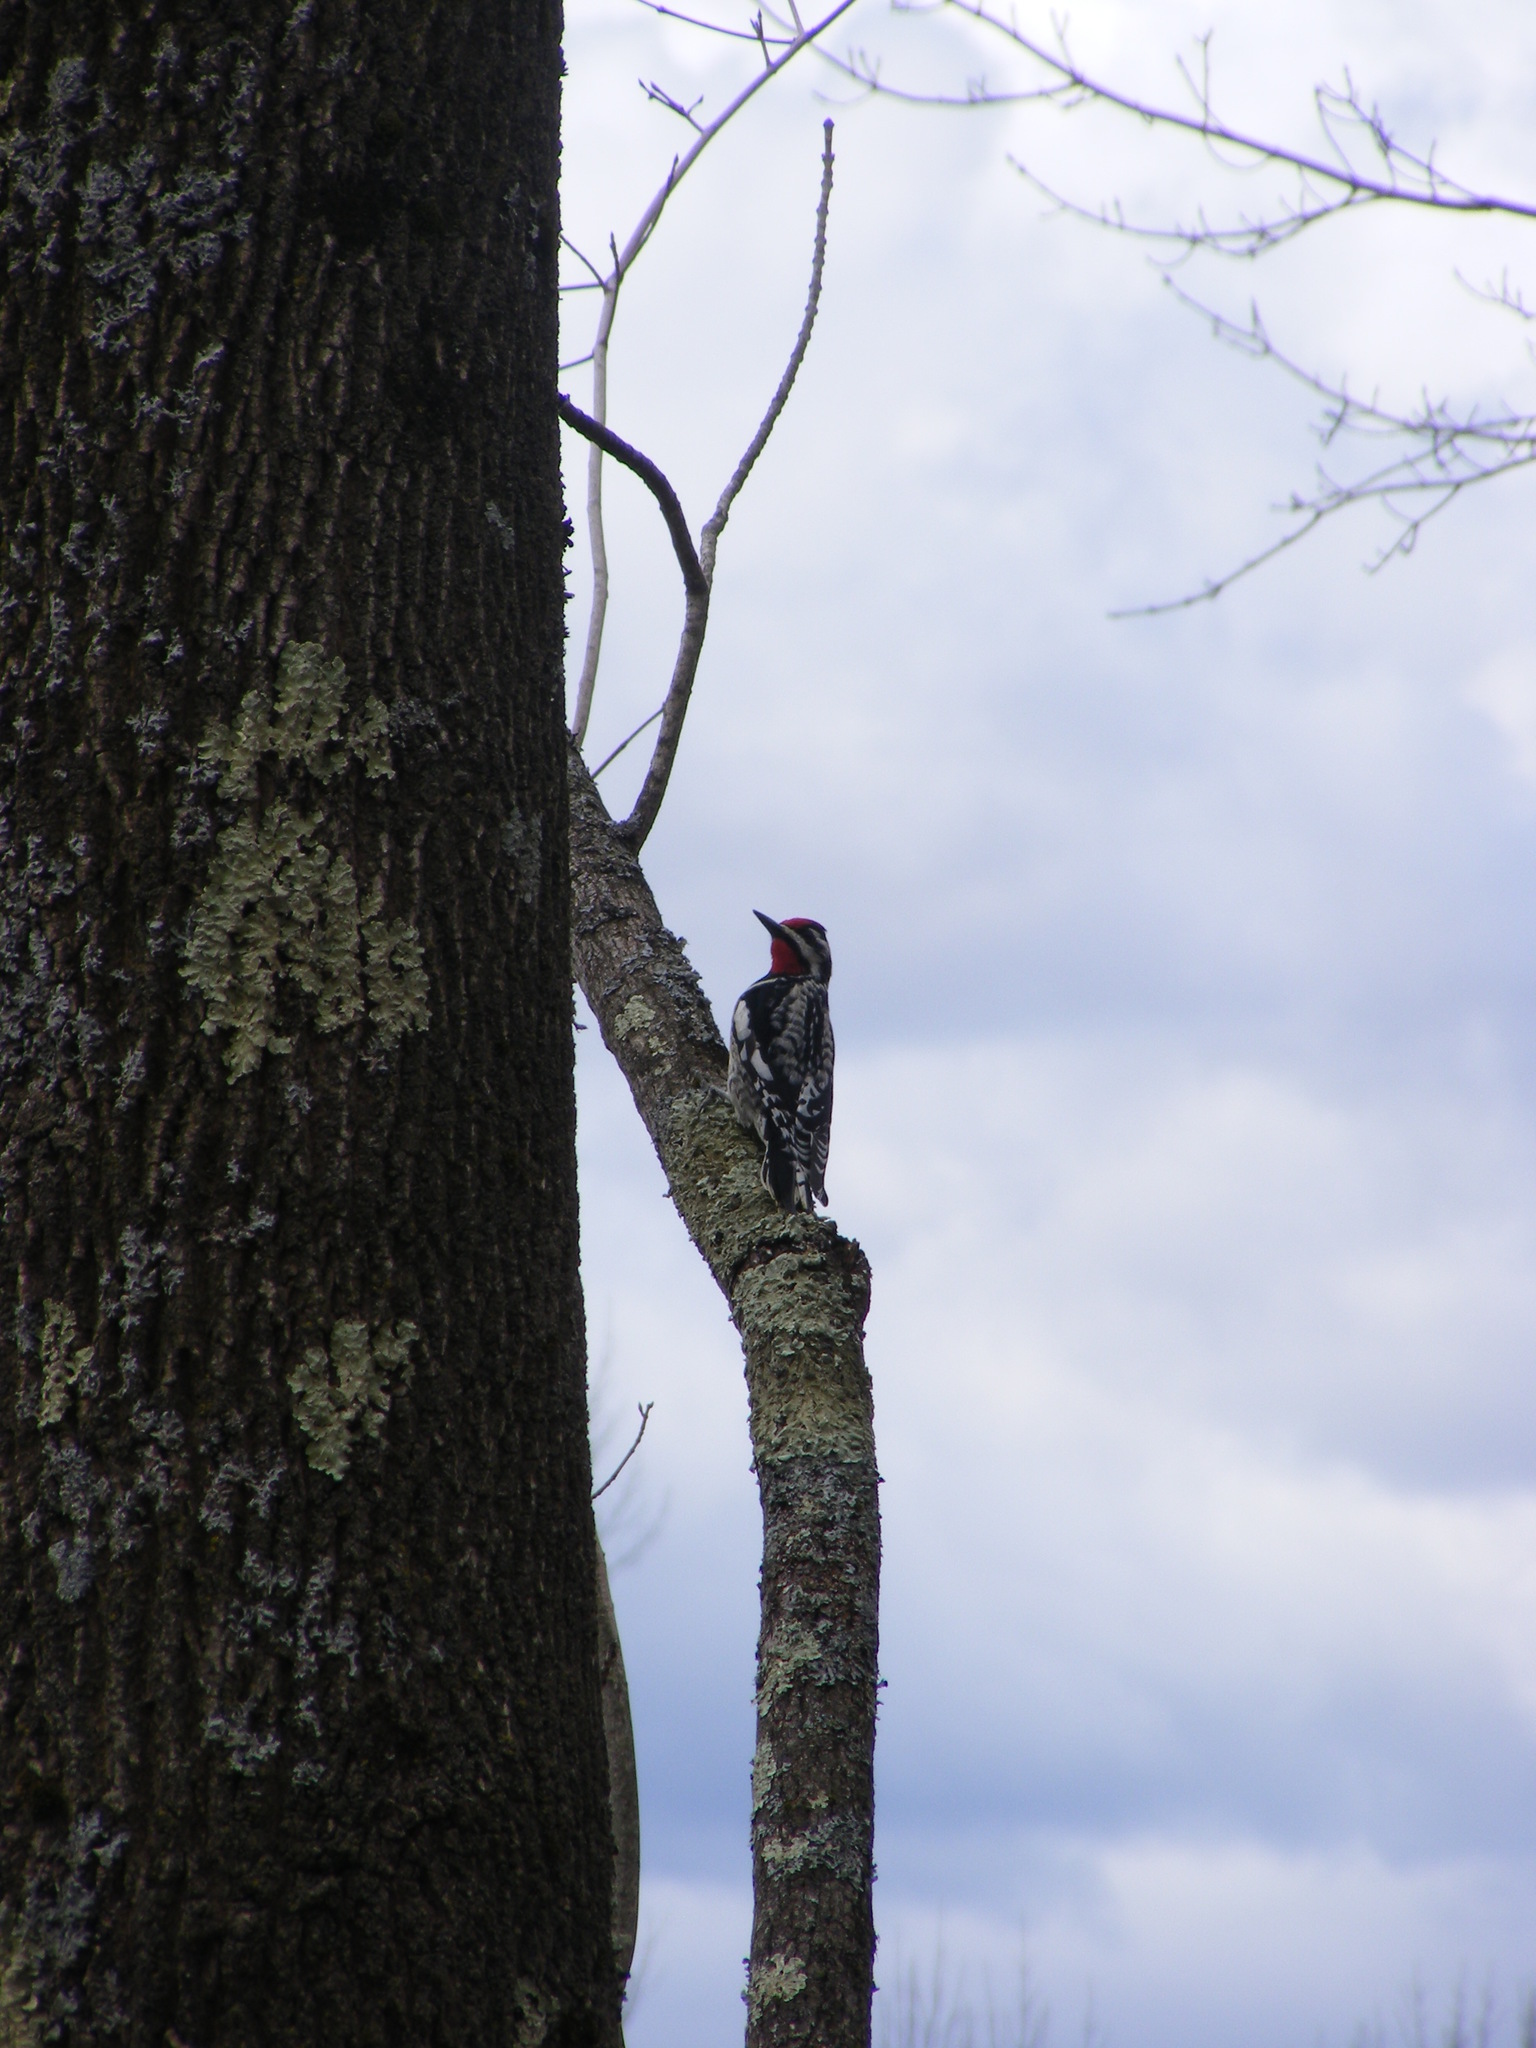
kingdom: Animalia
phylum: Chordata
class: Aves
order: Piciformes
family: Picidae
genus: Sphyrapicus
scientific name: Sphyrapicus varius
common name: Yellow-bellied sapsucker
